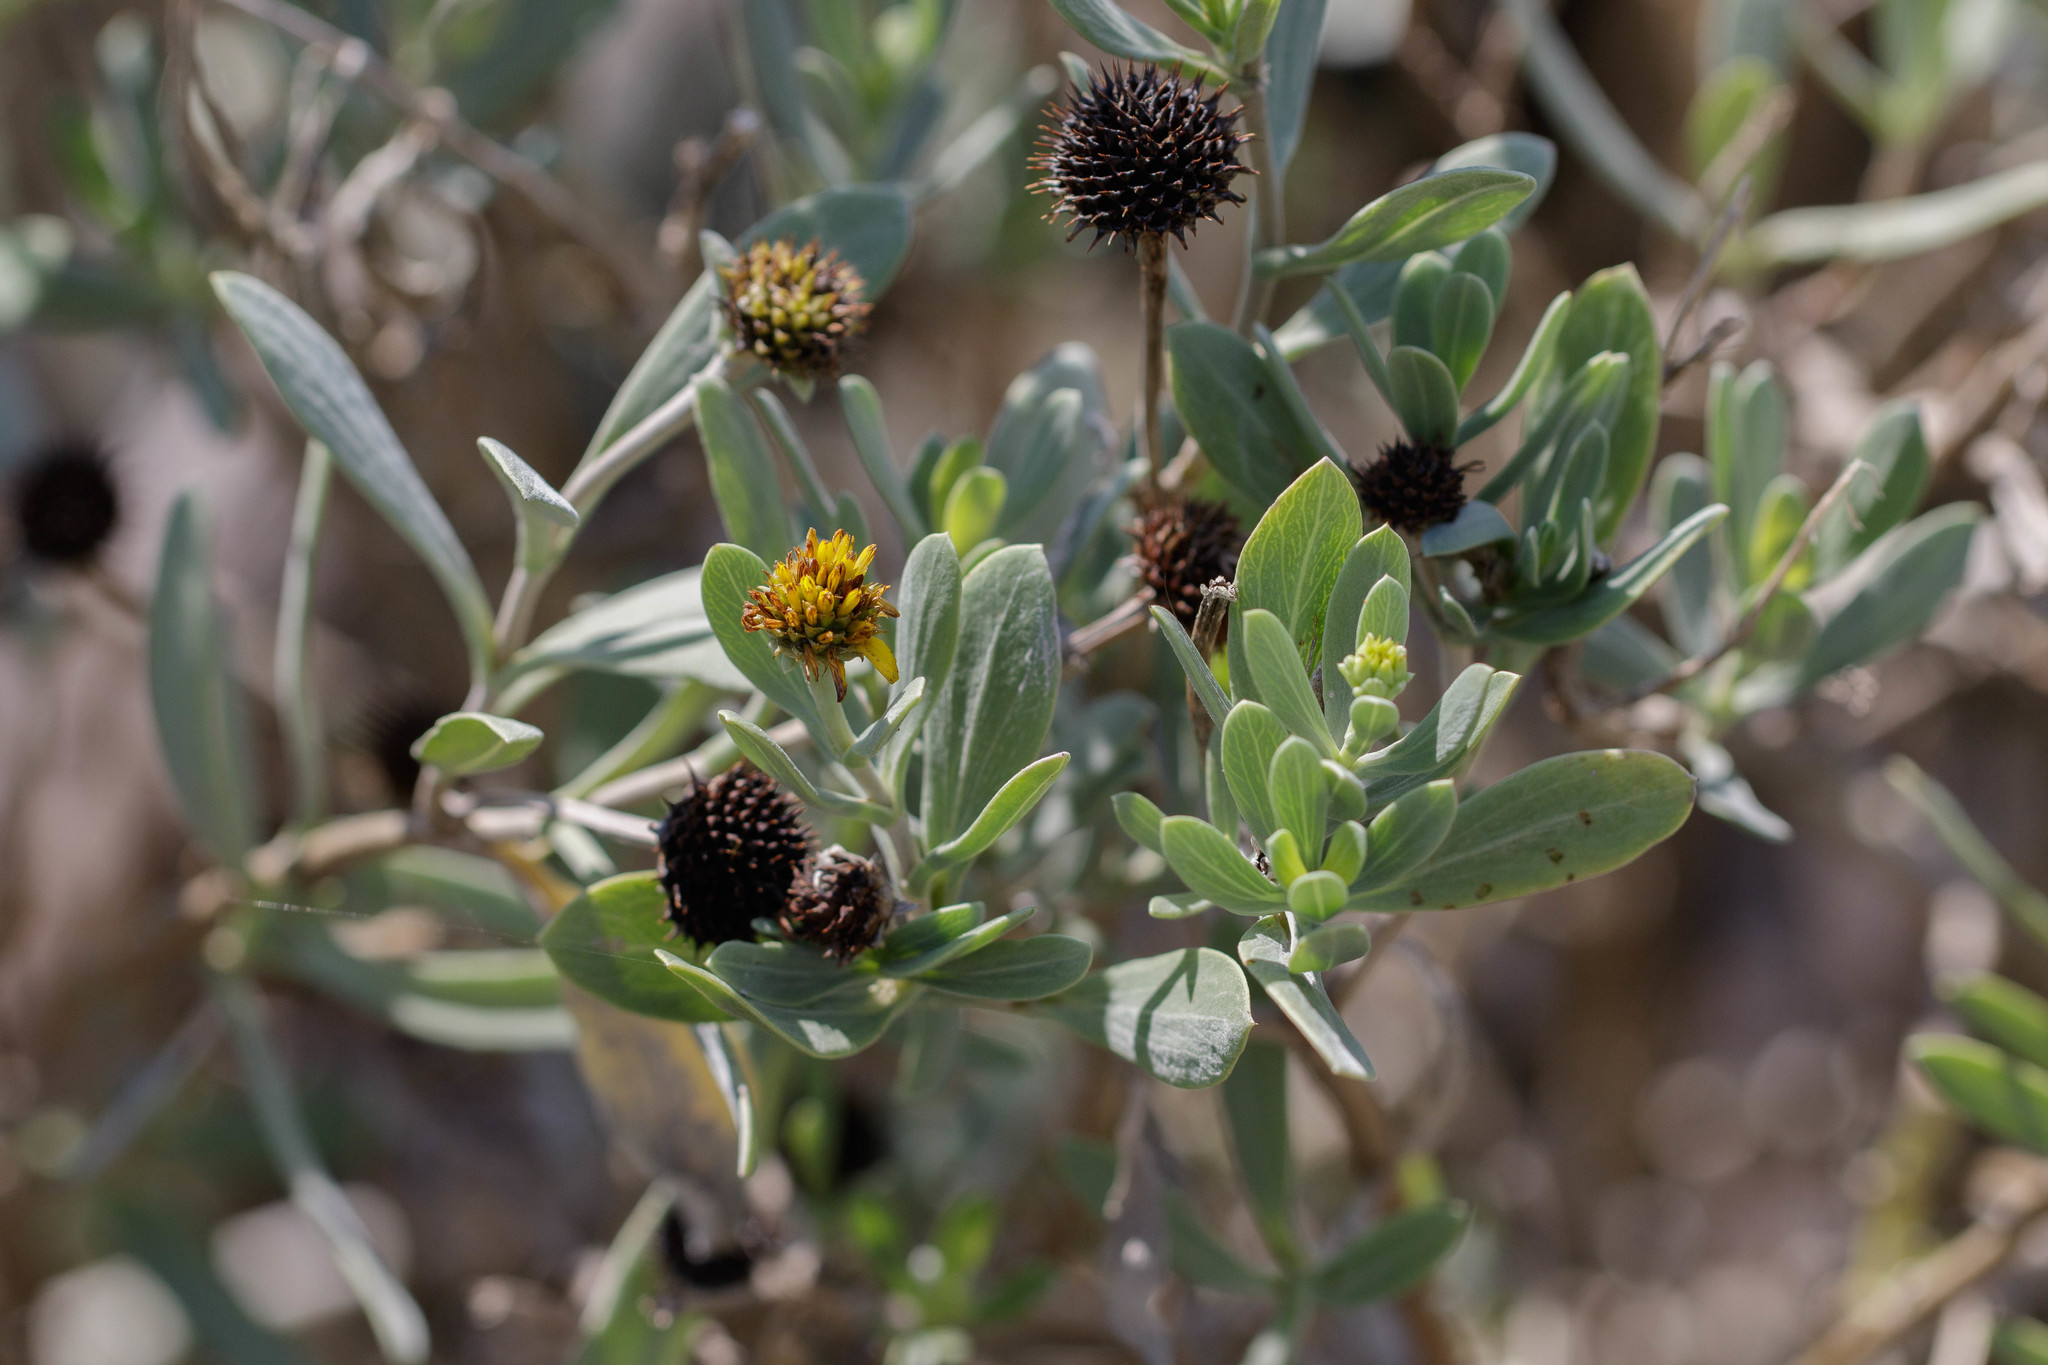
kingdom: Plantae
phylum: Tracheophyta
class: Magnoliopsida
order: Asterales
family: Asteraceae
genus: Borrichia
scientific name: Borrichia frutescens
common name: Sea oxeye
